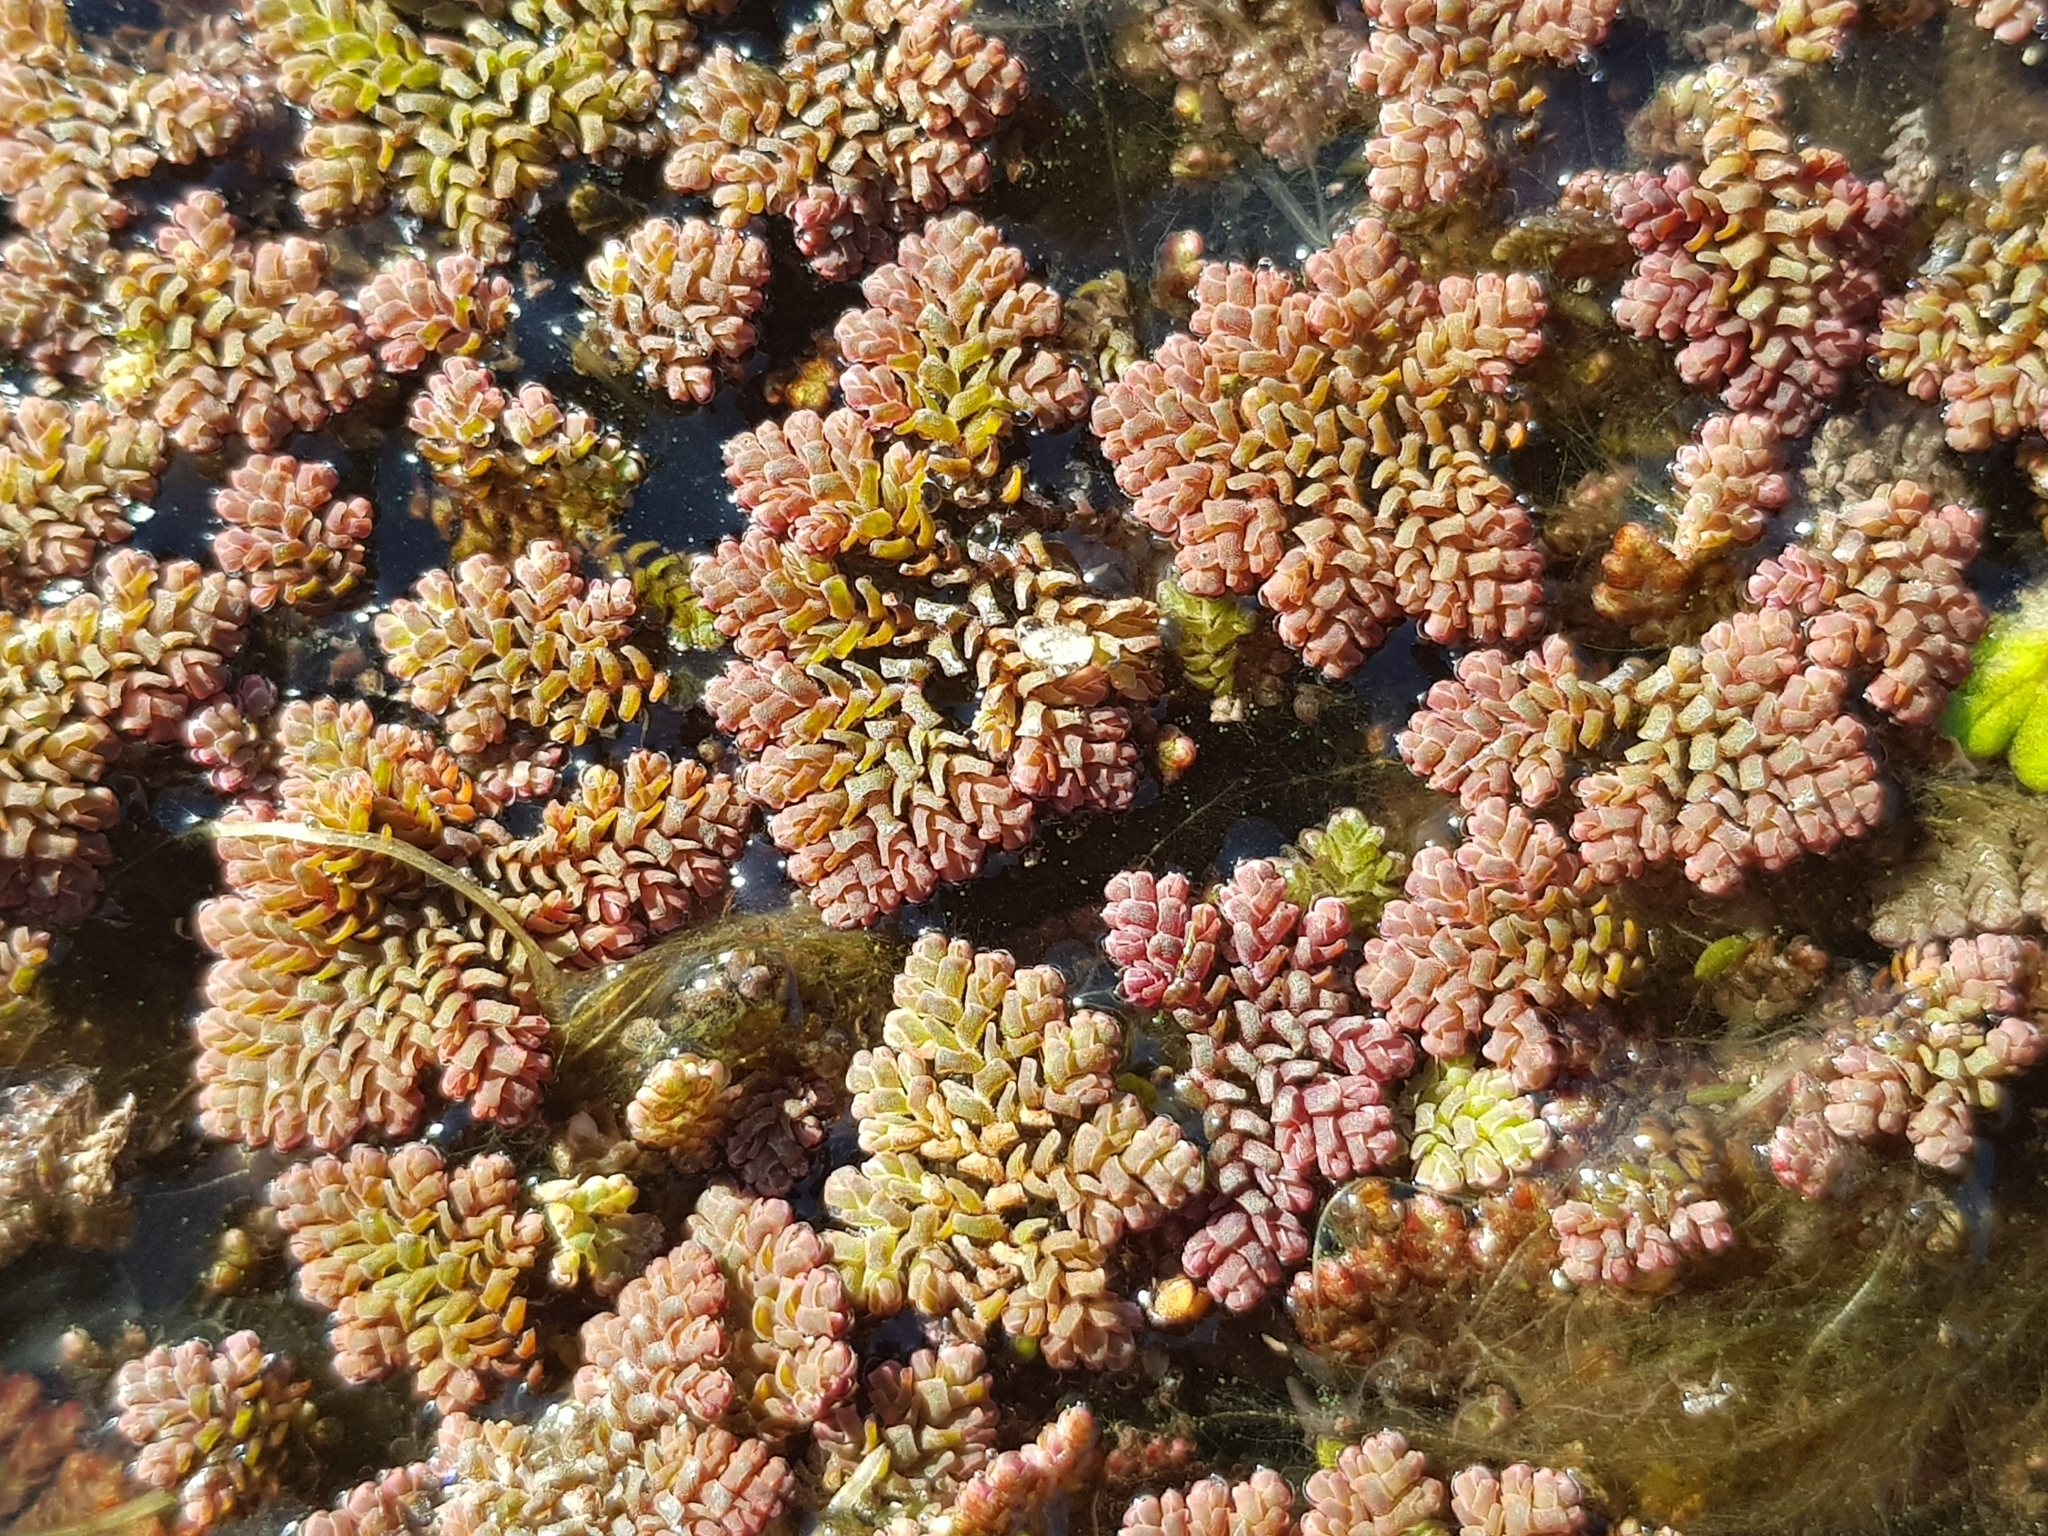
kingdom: Plantae
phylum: Tracheophyta
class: Polypodiopsida
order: Salviniales
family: Salviniaceae
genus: Azolla
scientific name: Azolla pinnata
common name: Ferny azolla
